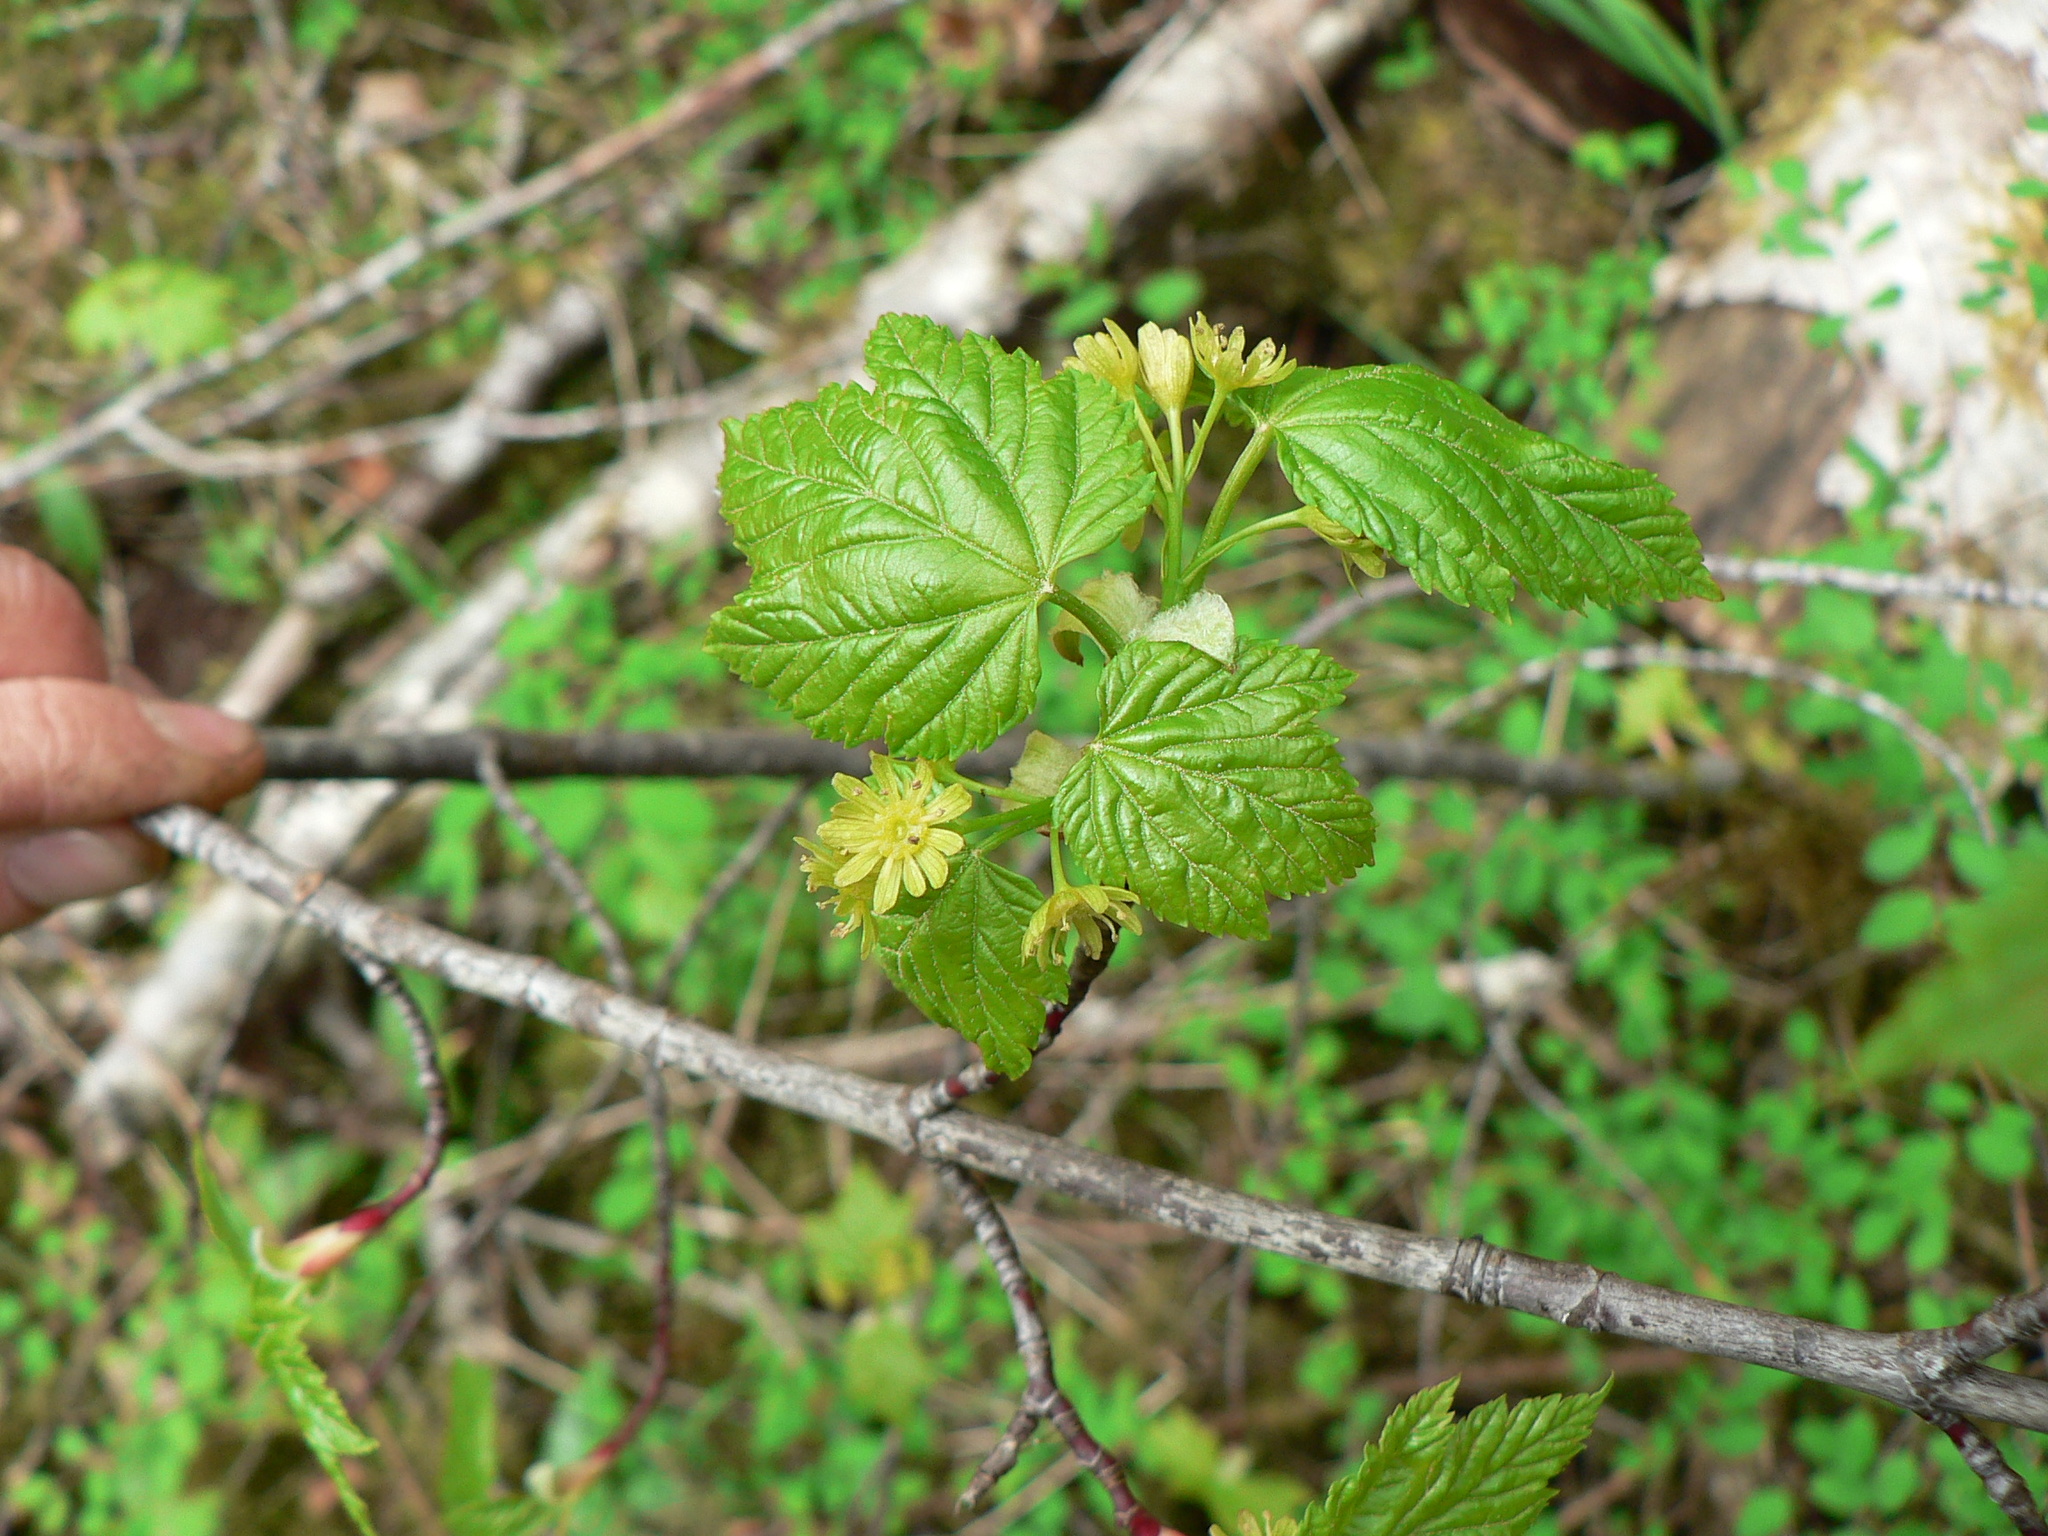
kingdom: Plantae
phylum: Tracheophyta
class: Magnoliopsida
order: Sapindales
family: Sapindaceae
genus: Acer
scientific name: Acer glabrum
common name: Rocky mountain maple
